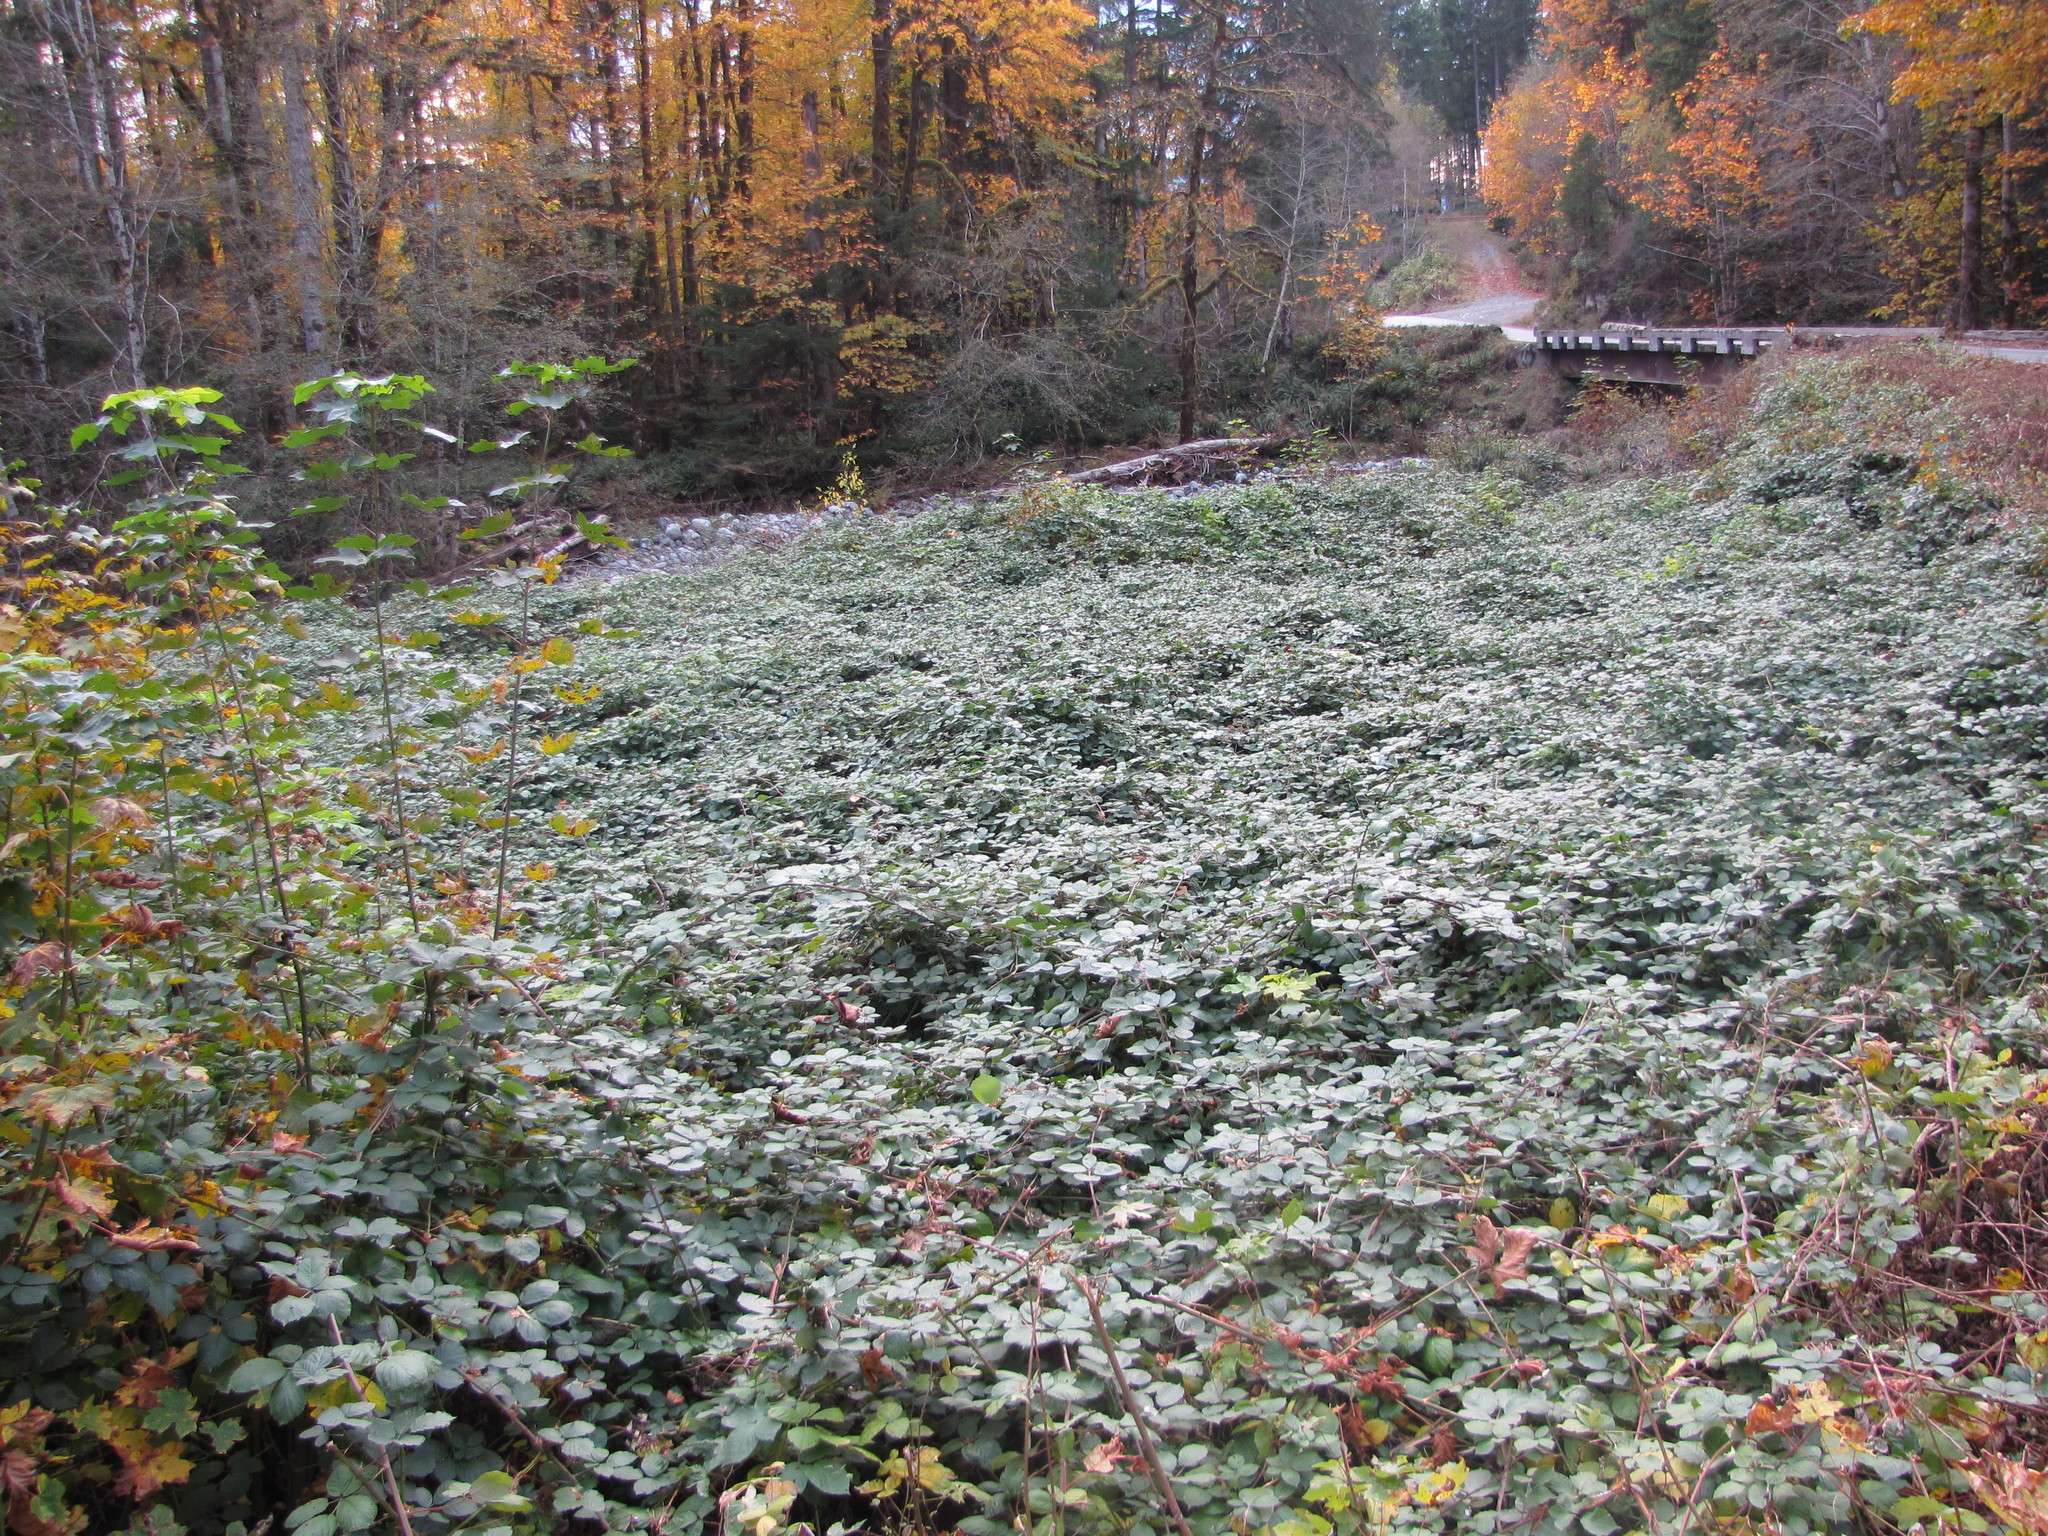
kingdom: Plantae
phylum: Tracheophyta
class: Magnoliopsida
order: Rosales
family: Rosaceae
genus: Rubus
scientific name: Rubus armeniacus
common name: Himalayan blackberry
